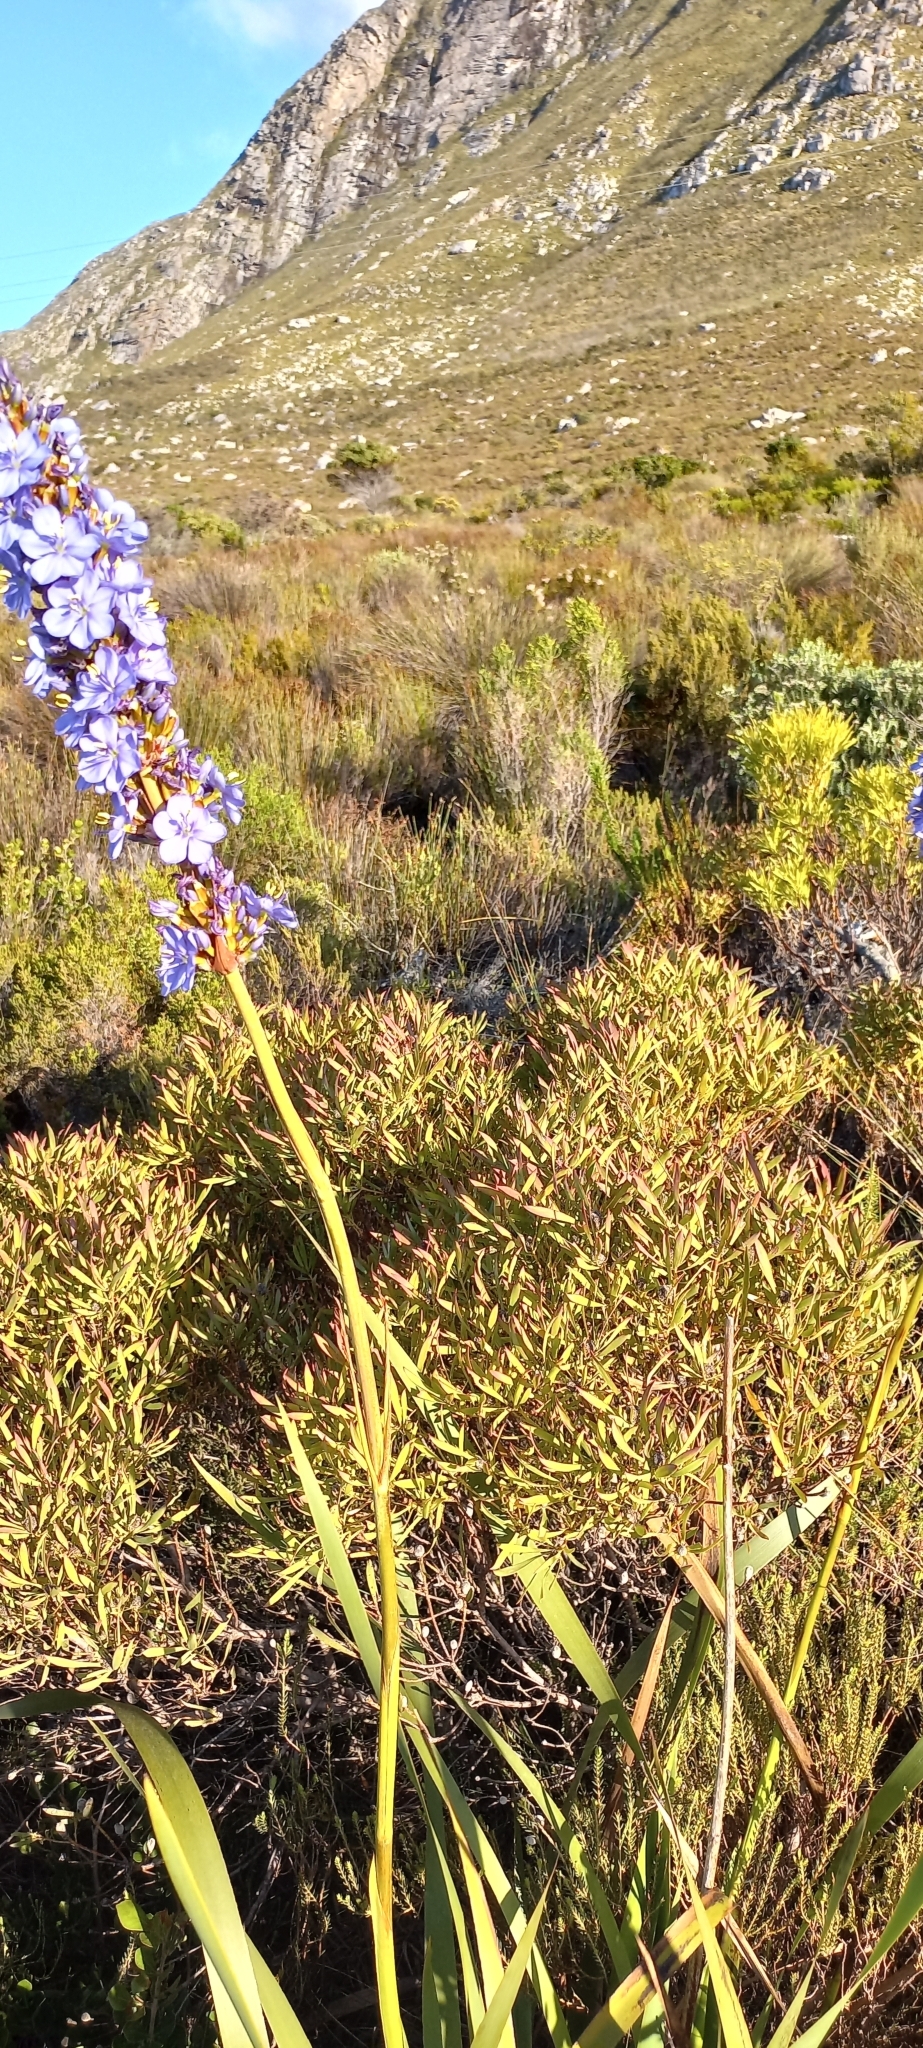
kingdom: Plantae
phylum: Tracheophyta
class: Liliopsida
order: Asparagales
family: Iridaceae
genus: Aristea
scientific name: Aristea capitata
